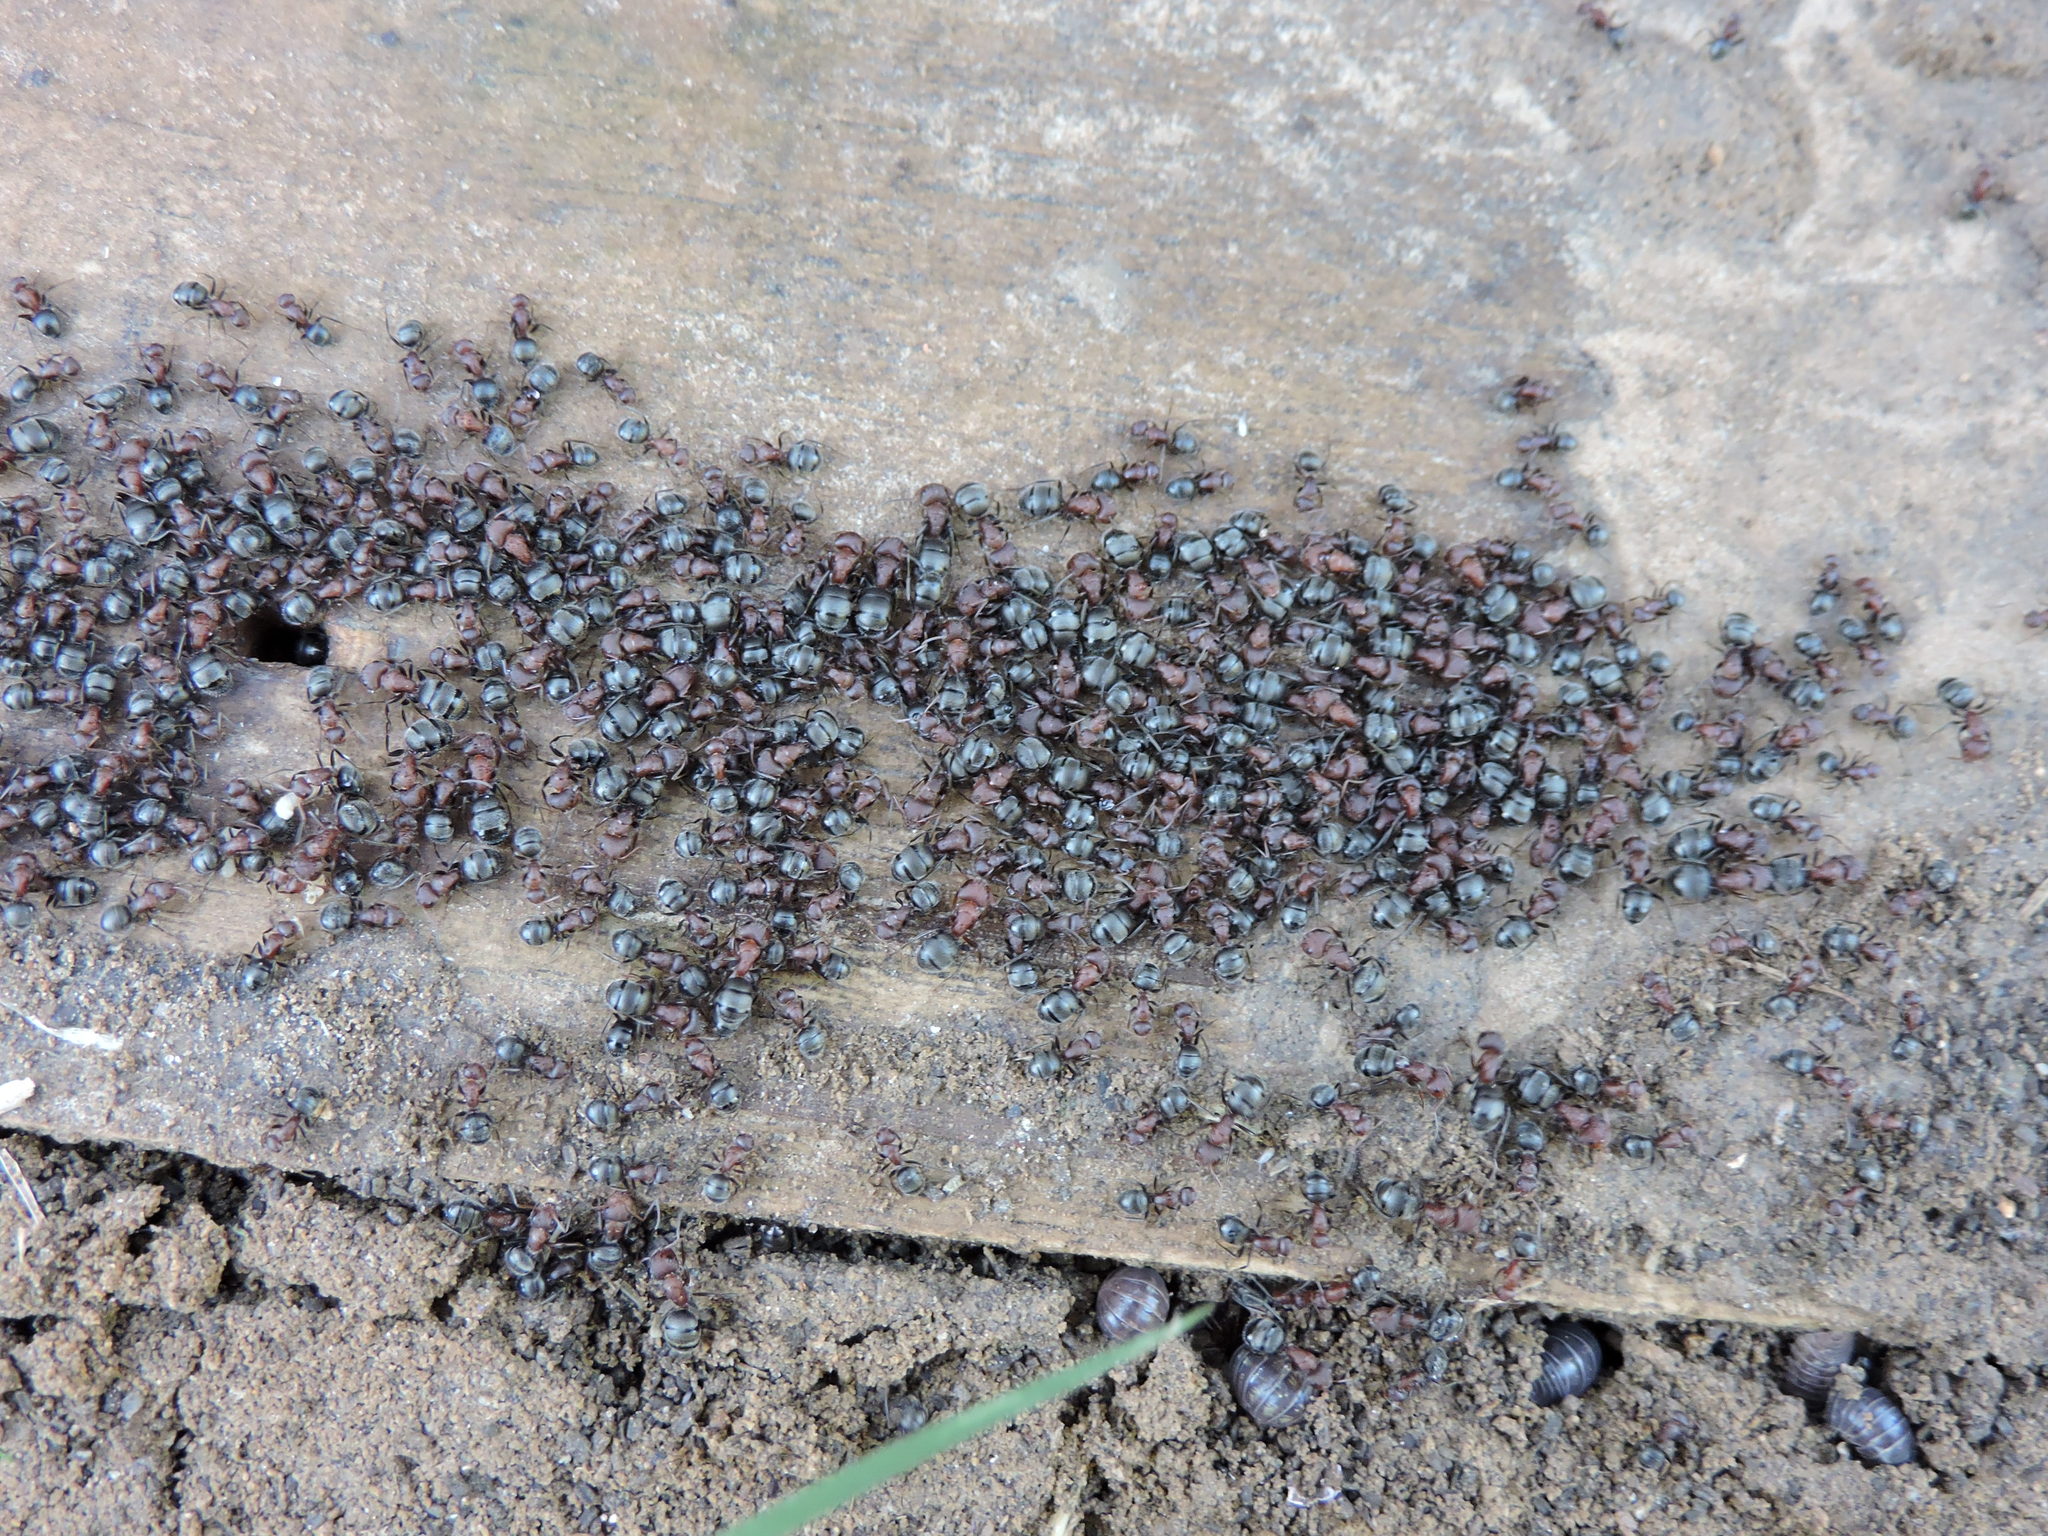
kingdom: Animalia
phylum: Arthropoda
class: Insecta
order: Hymenoptera
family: Formicidae
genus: Camponotus
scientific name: Camponotus planatus
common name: Compact carpenter ant
